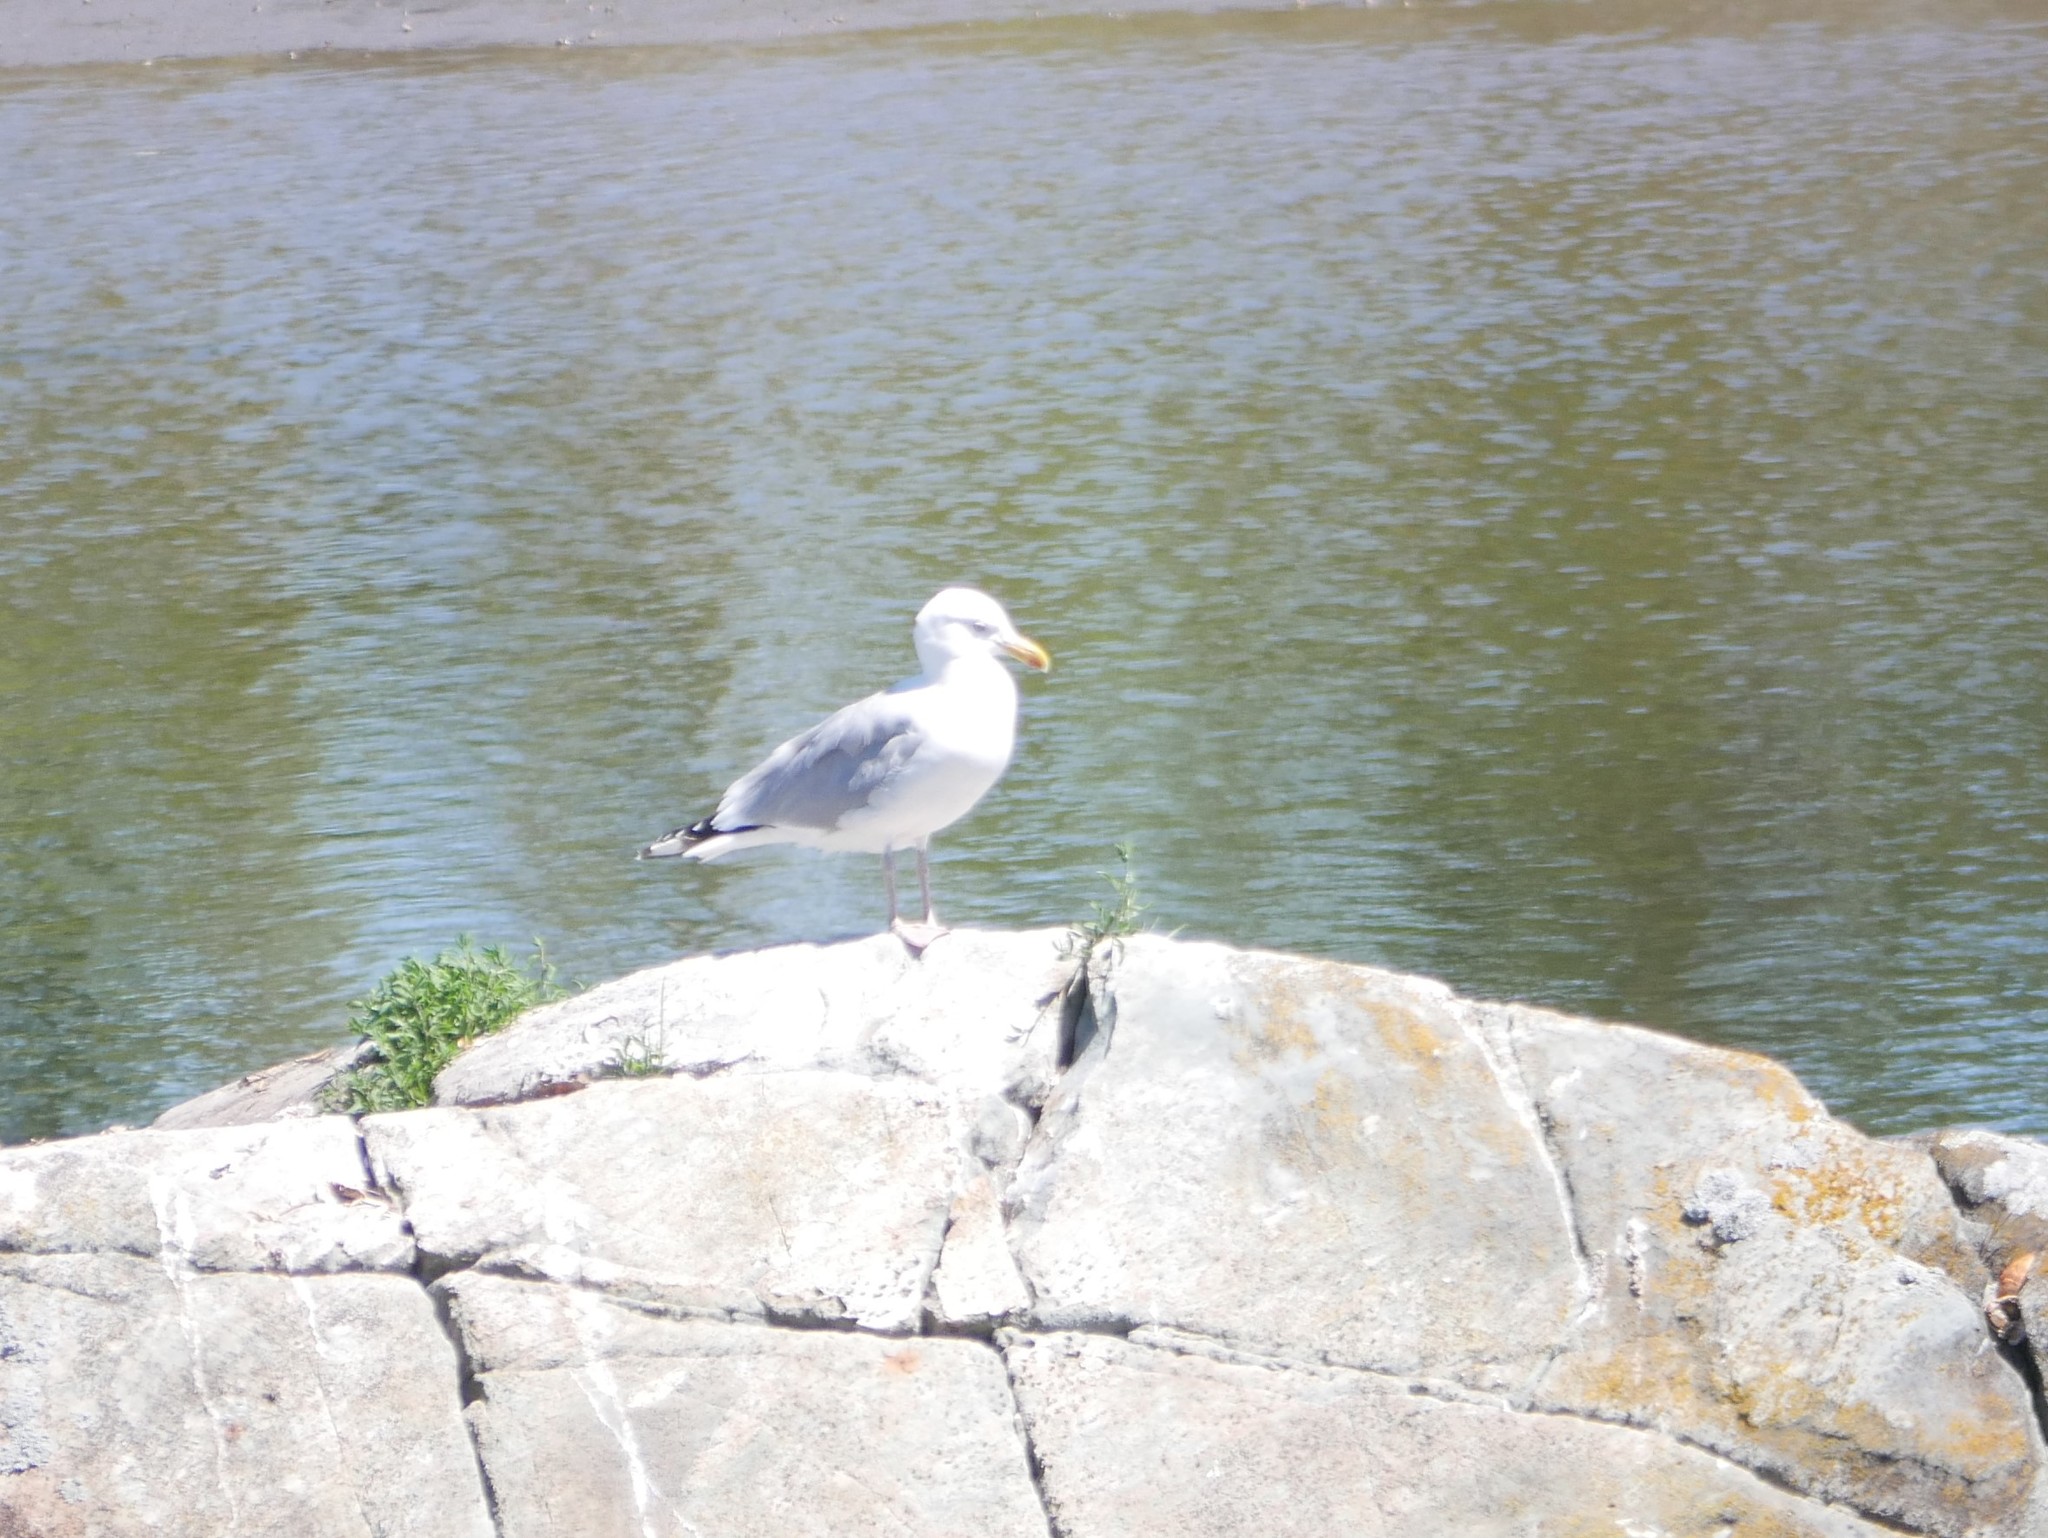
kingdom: Animalia
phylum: Chordata
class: Aves
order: Charadriiformes
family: Laridae
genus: Larus
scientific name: Larus argentatus
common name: Herring gull
